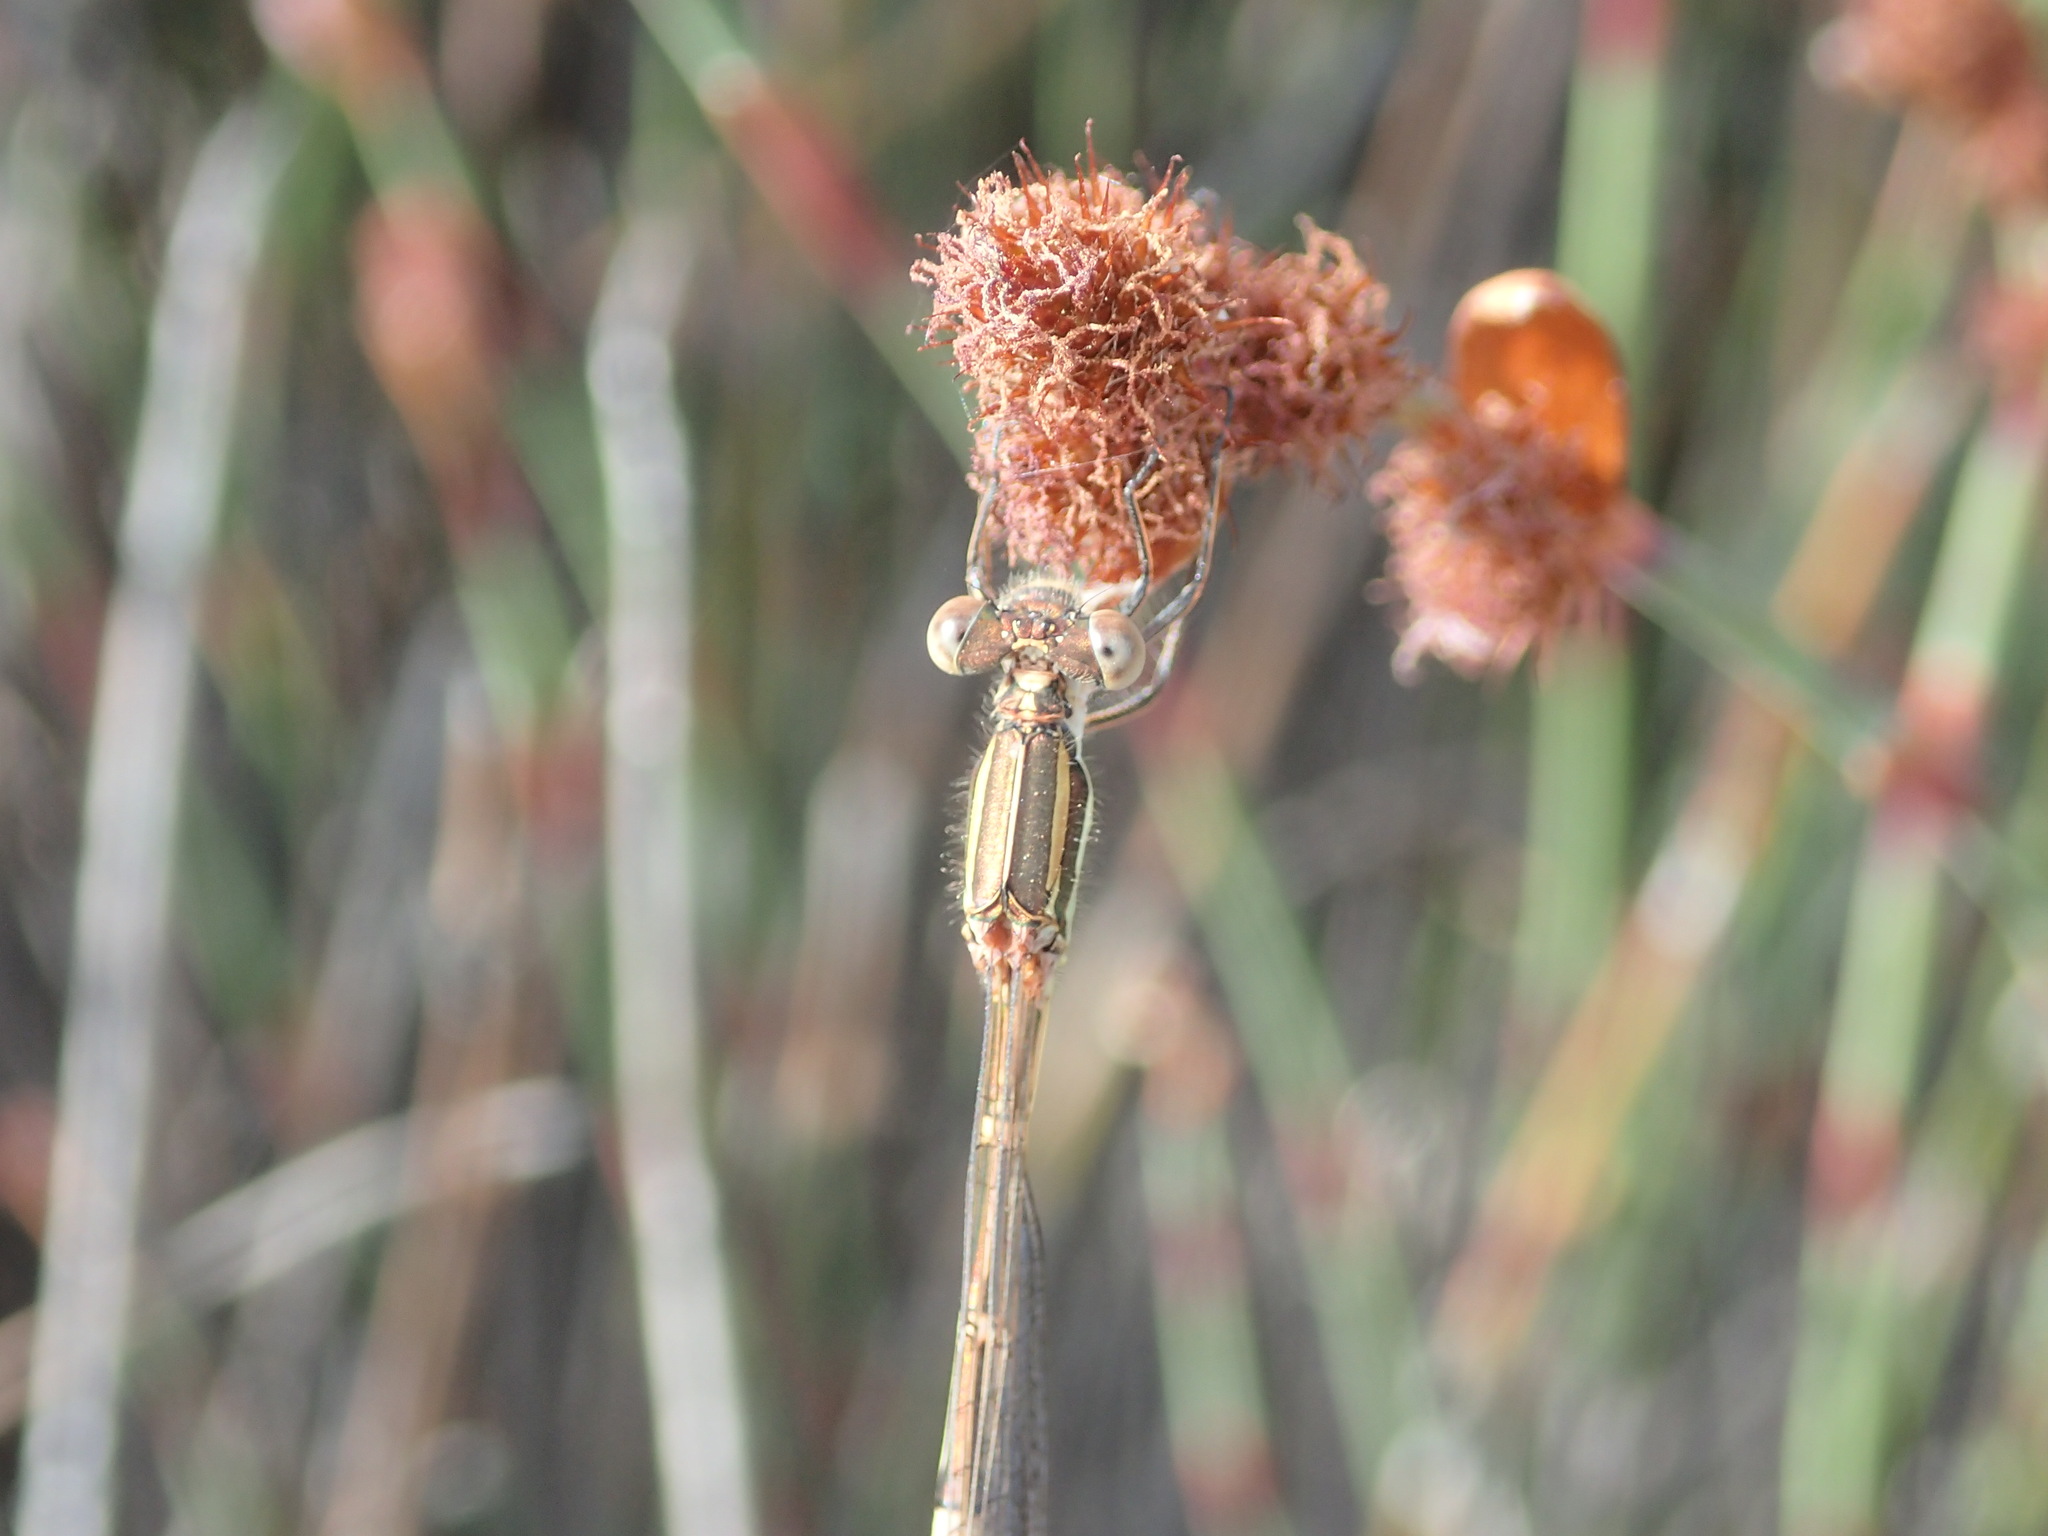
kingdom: Animalia
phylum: Arthropoda
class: Insecta
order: Odonata
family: Lestidae
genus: Austrolestes
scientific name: Austrolestes analis
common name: Slender ringtail
